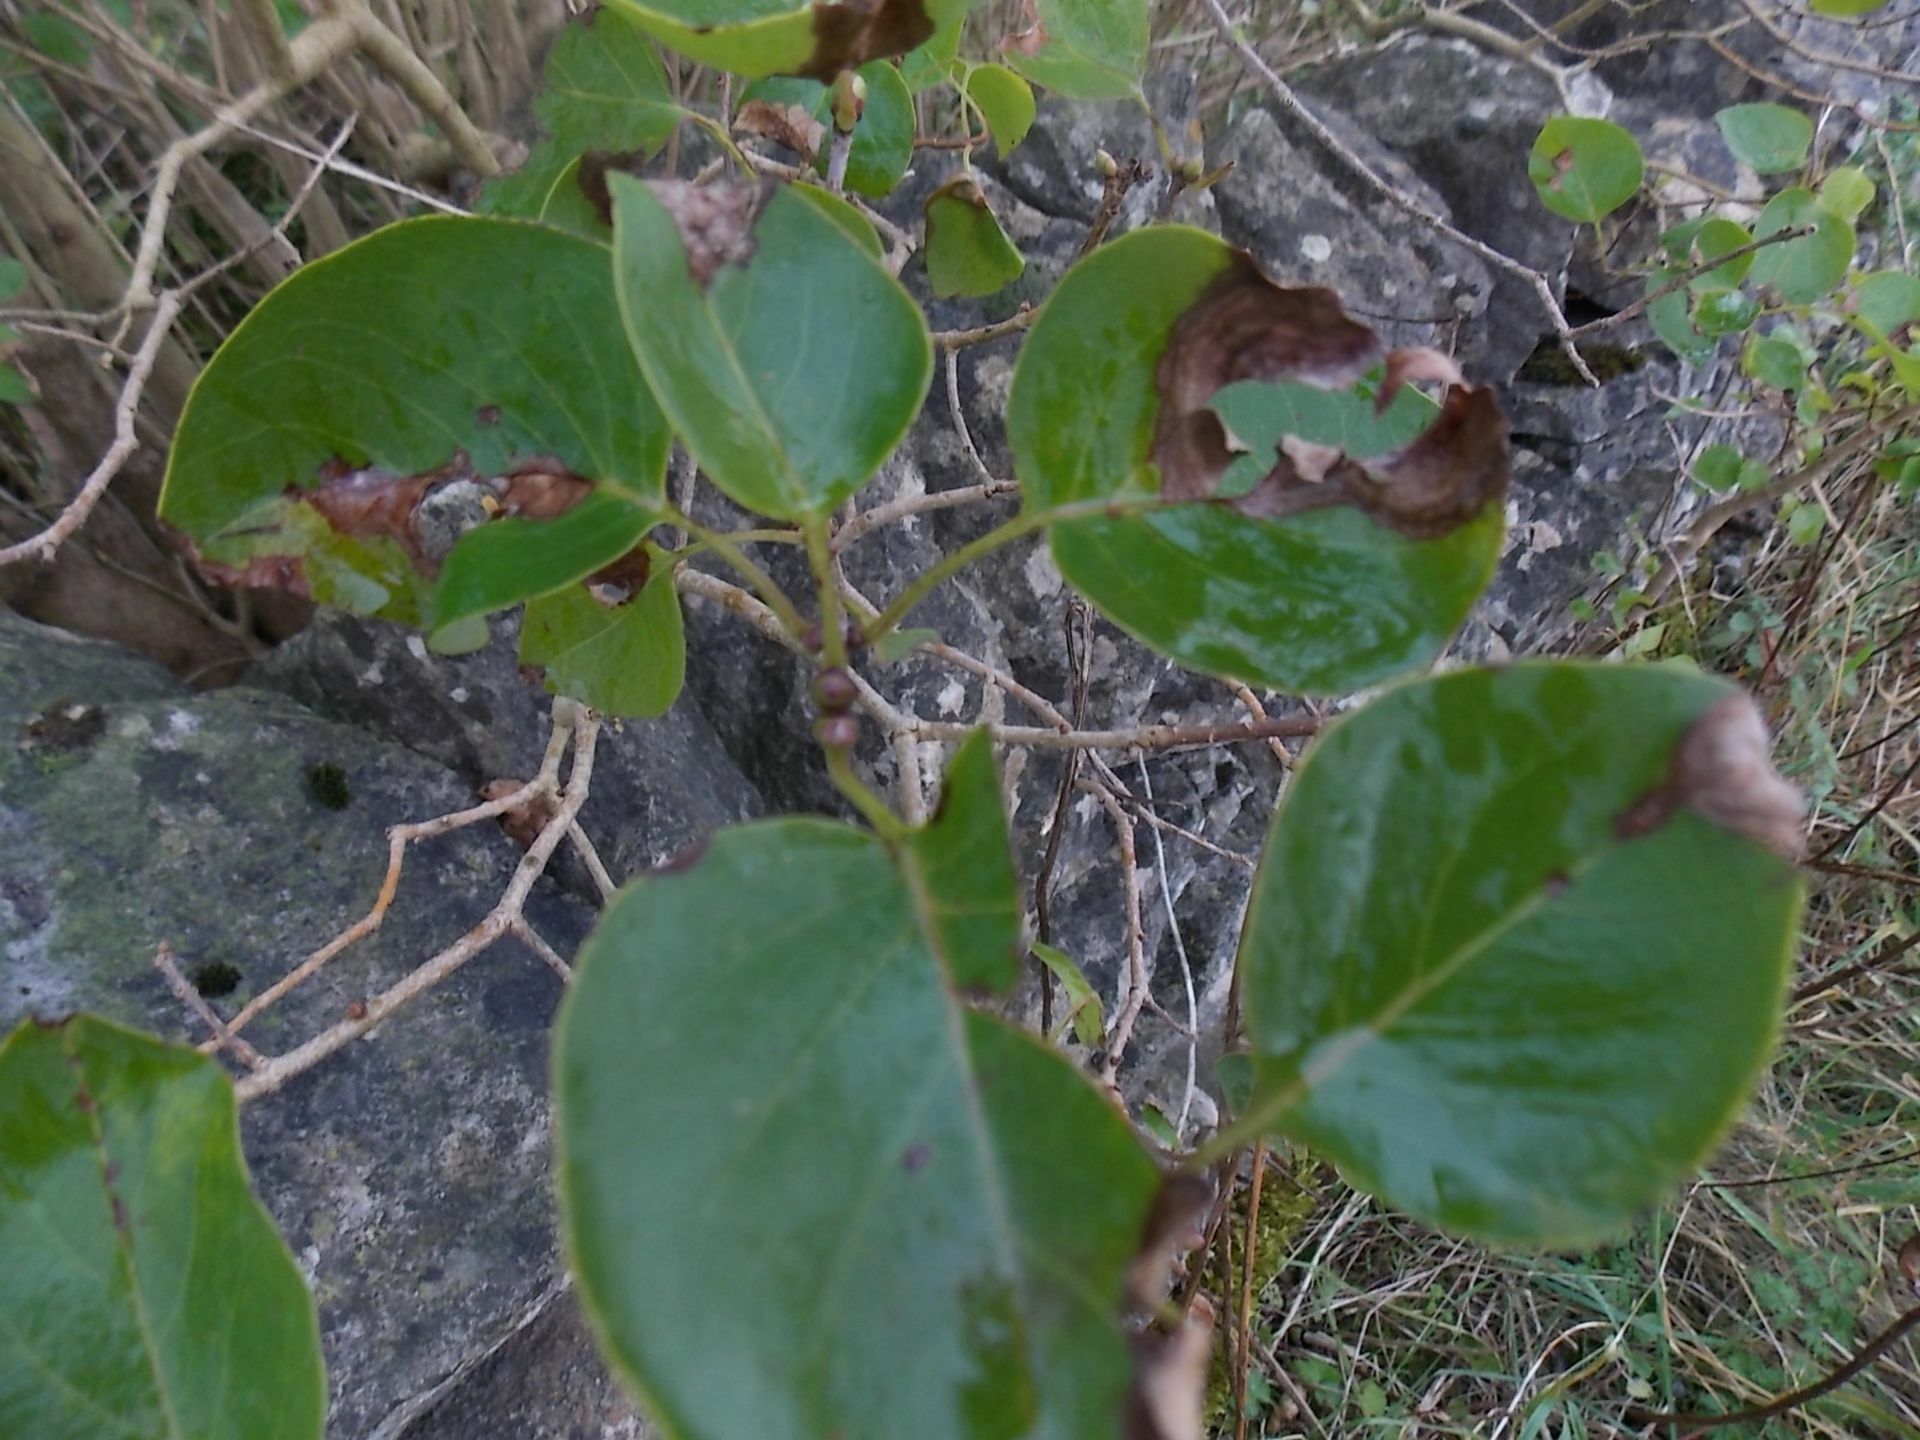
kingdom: Plantae
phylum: Tracheophyta
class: Magnoliopsida
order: Lamiales
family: Oleaceae
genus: Syringa
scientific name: Syringa vulgaris
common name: Common lilac
